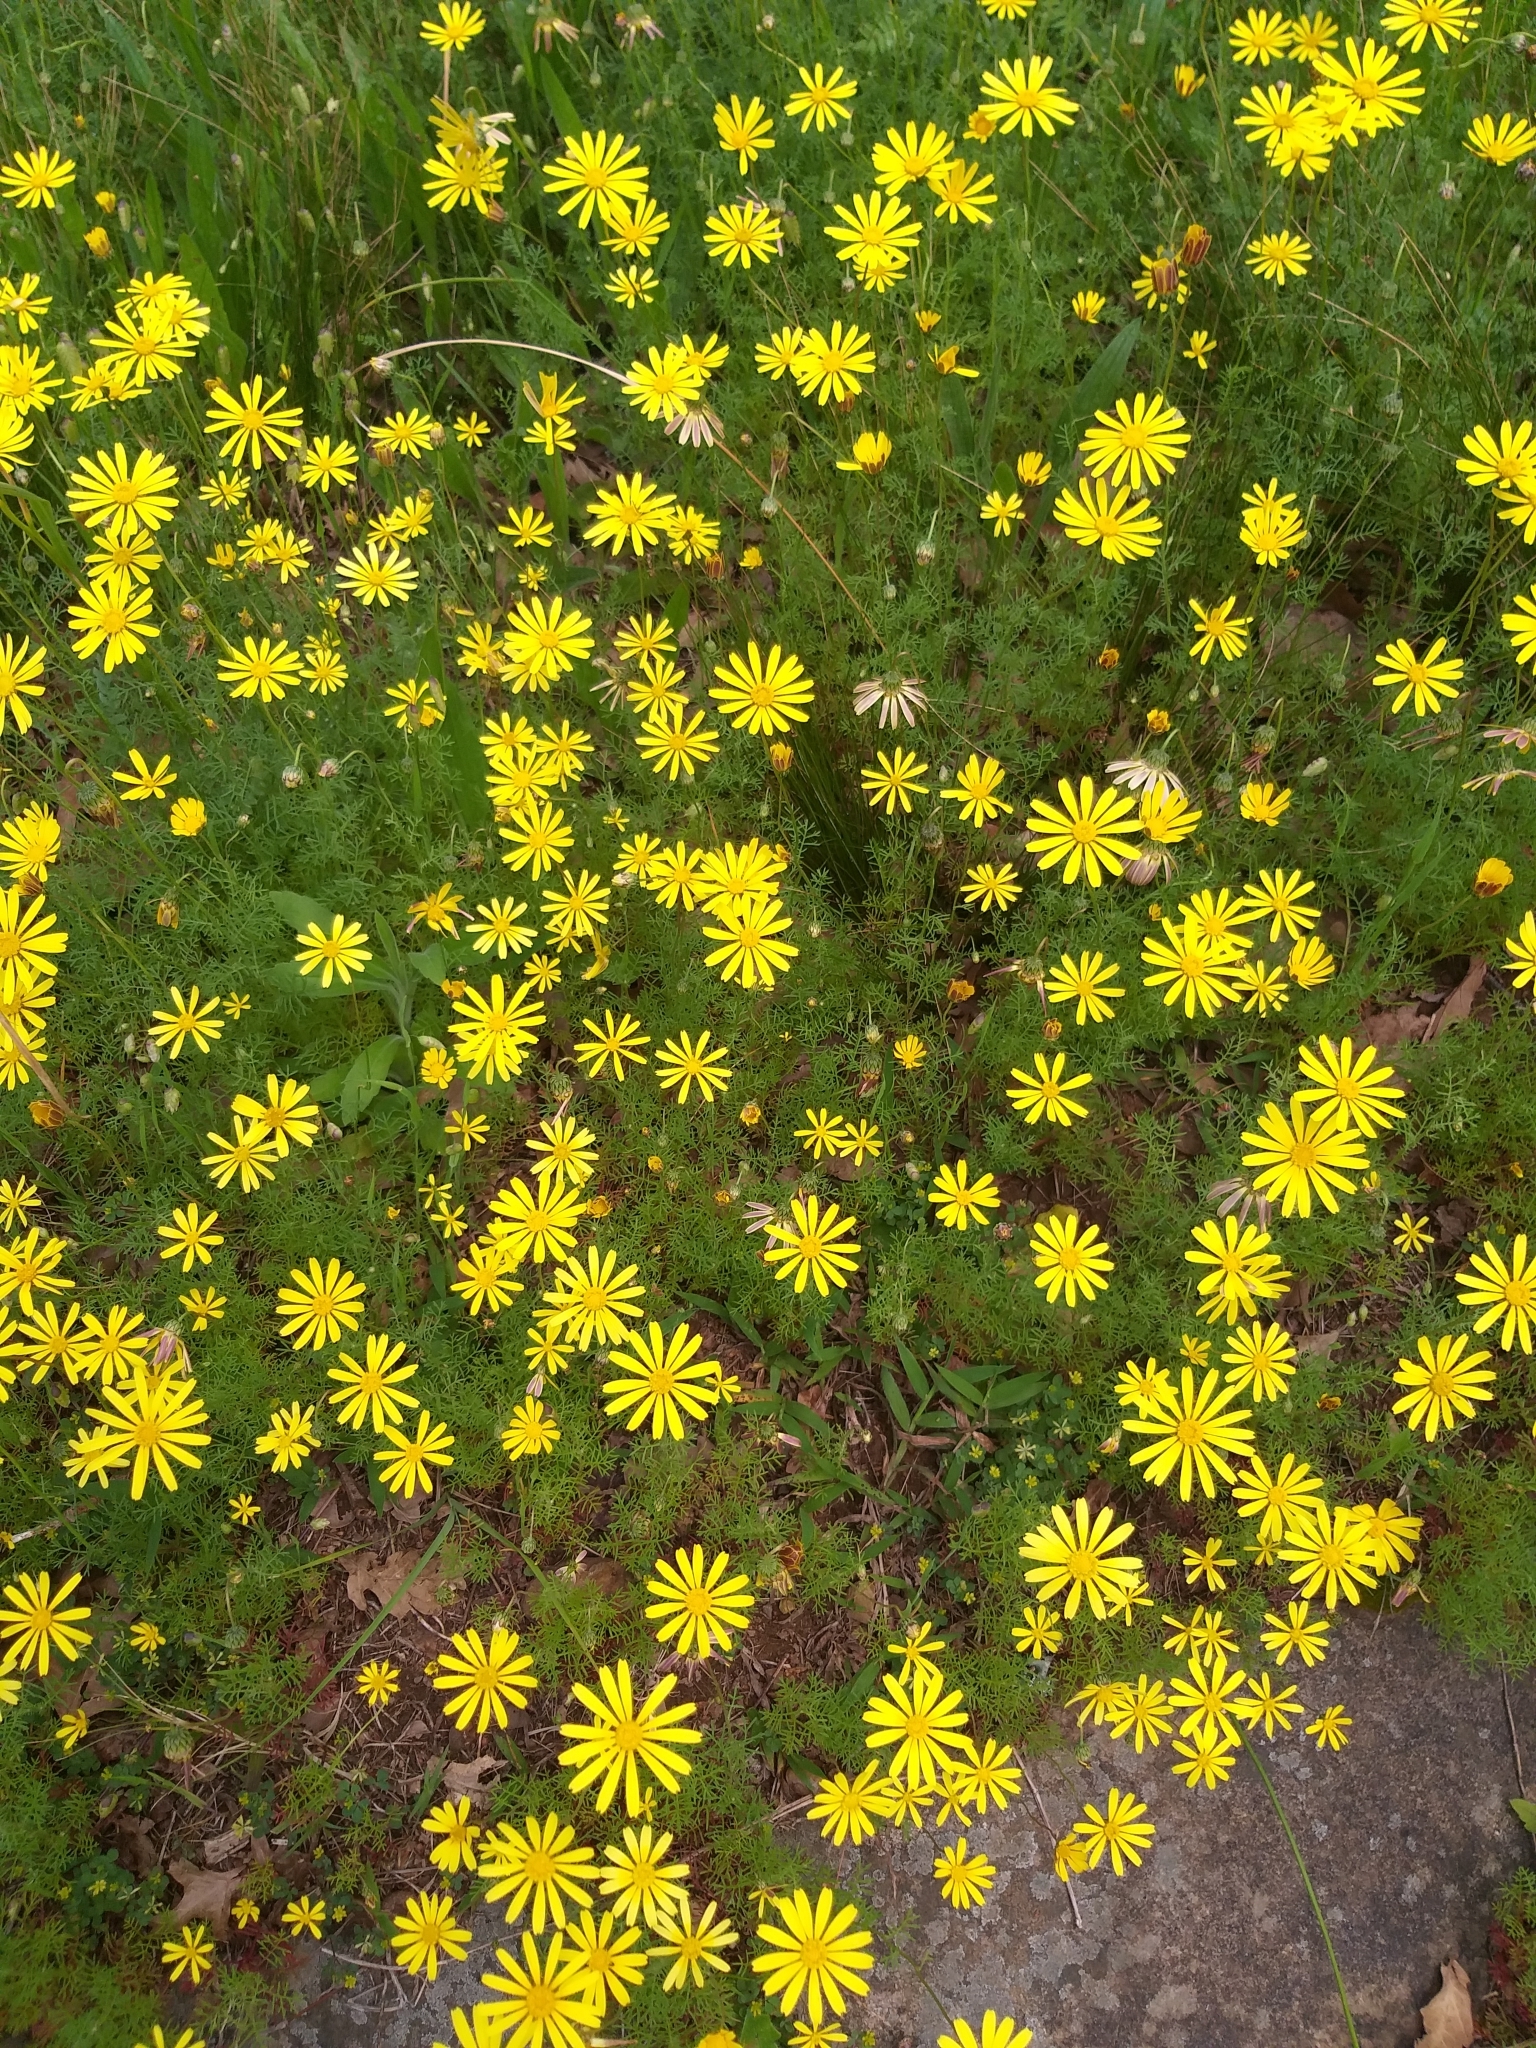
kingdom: Plantae
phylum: Tracheophyta
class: Magnoliopsida
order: Asterales
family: Asteraceae
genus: Ursinia
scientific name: Ursinia anthemoides
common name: Ursinia
